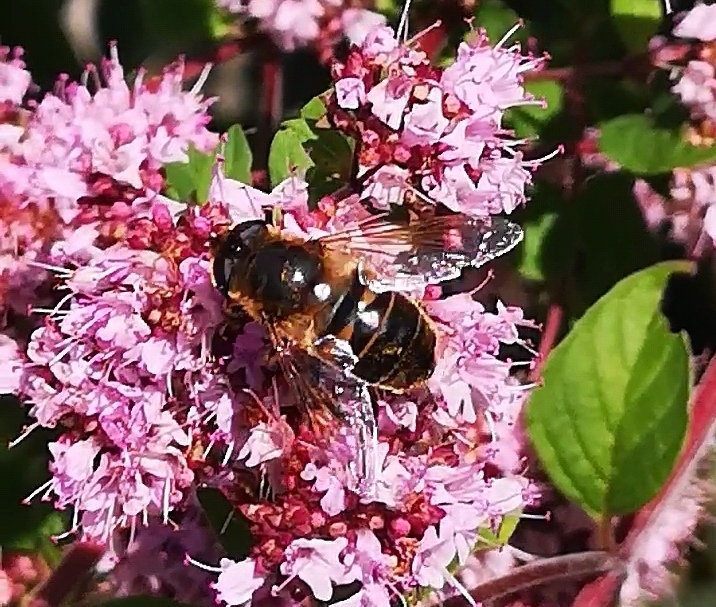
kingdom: Animalia
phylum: Arthropoda
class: Insecta
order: Diptera
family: Syrphidae
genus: Eristalis
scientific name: Eristalis tenax
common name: Drone fly
